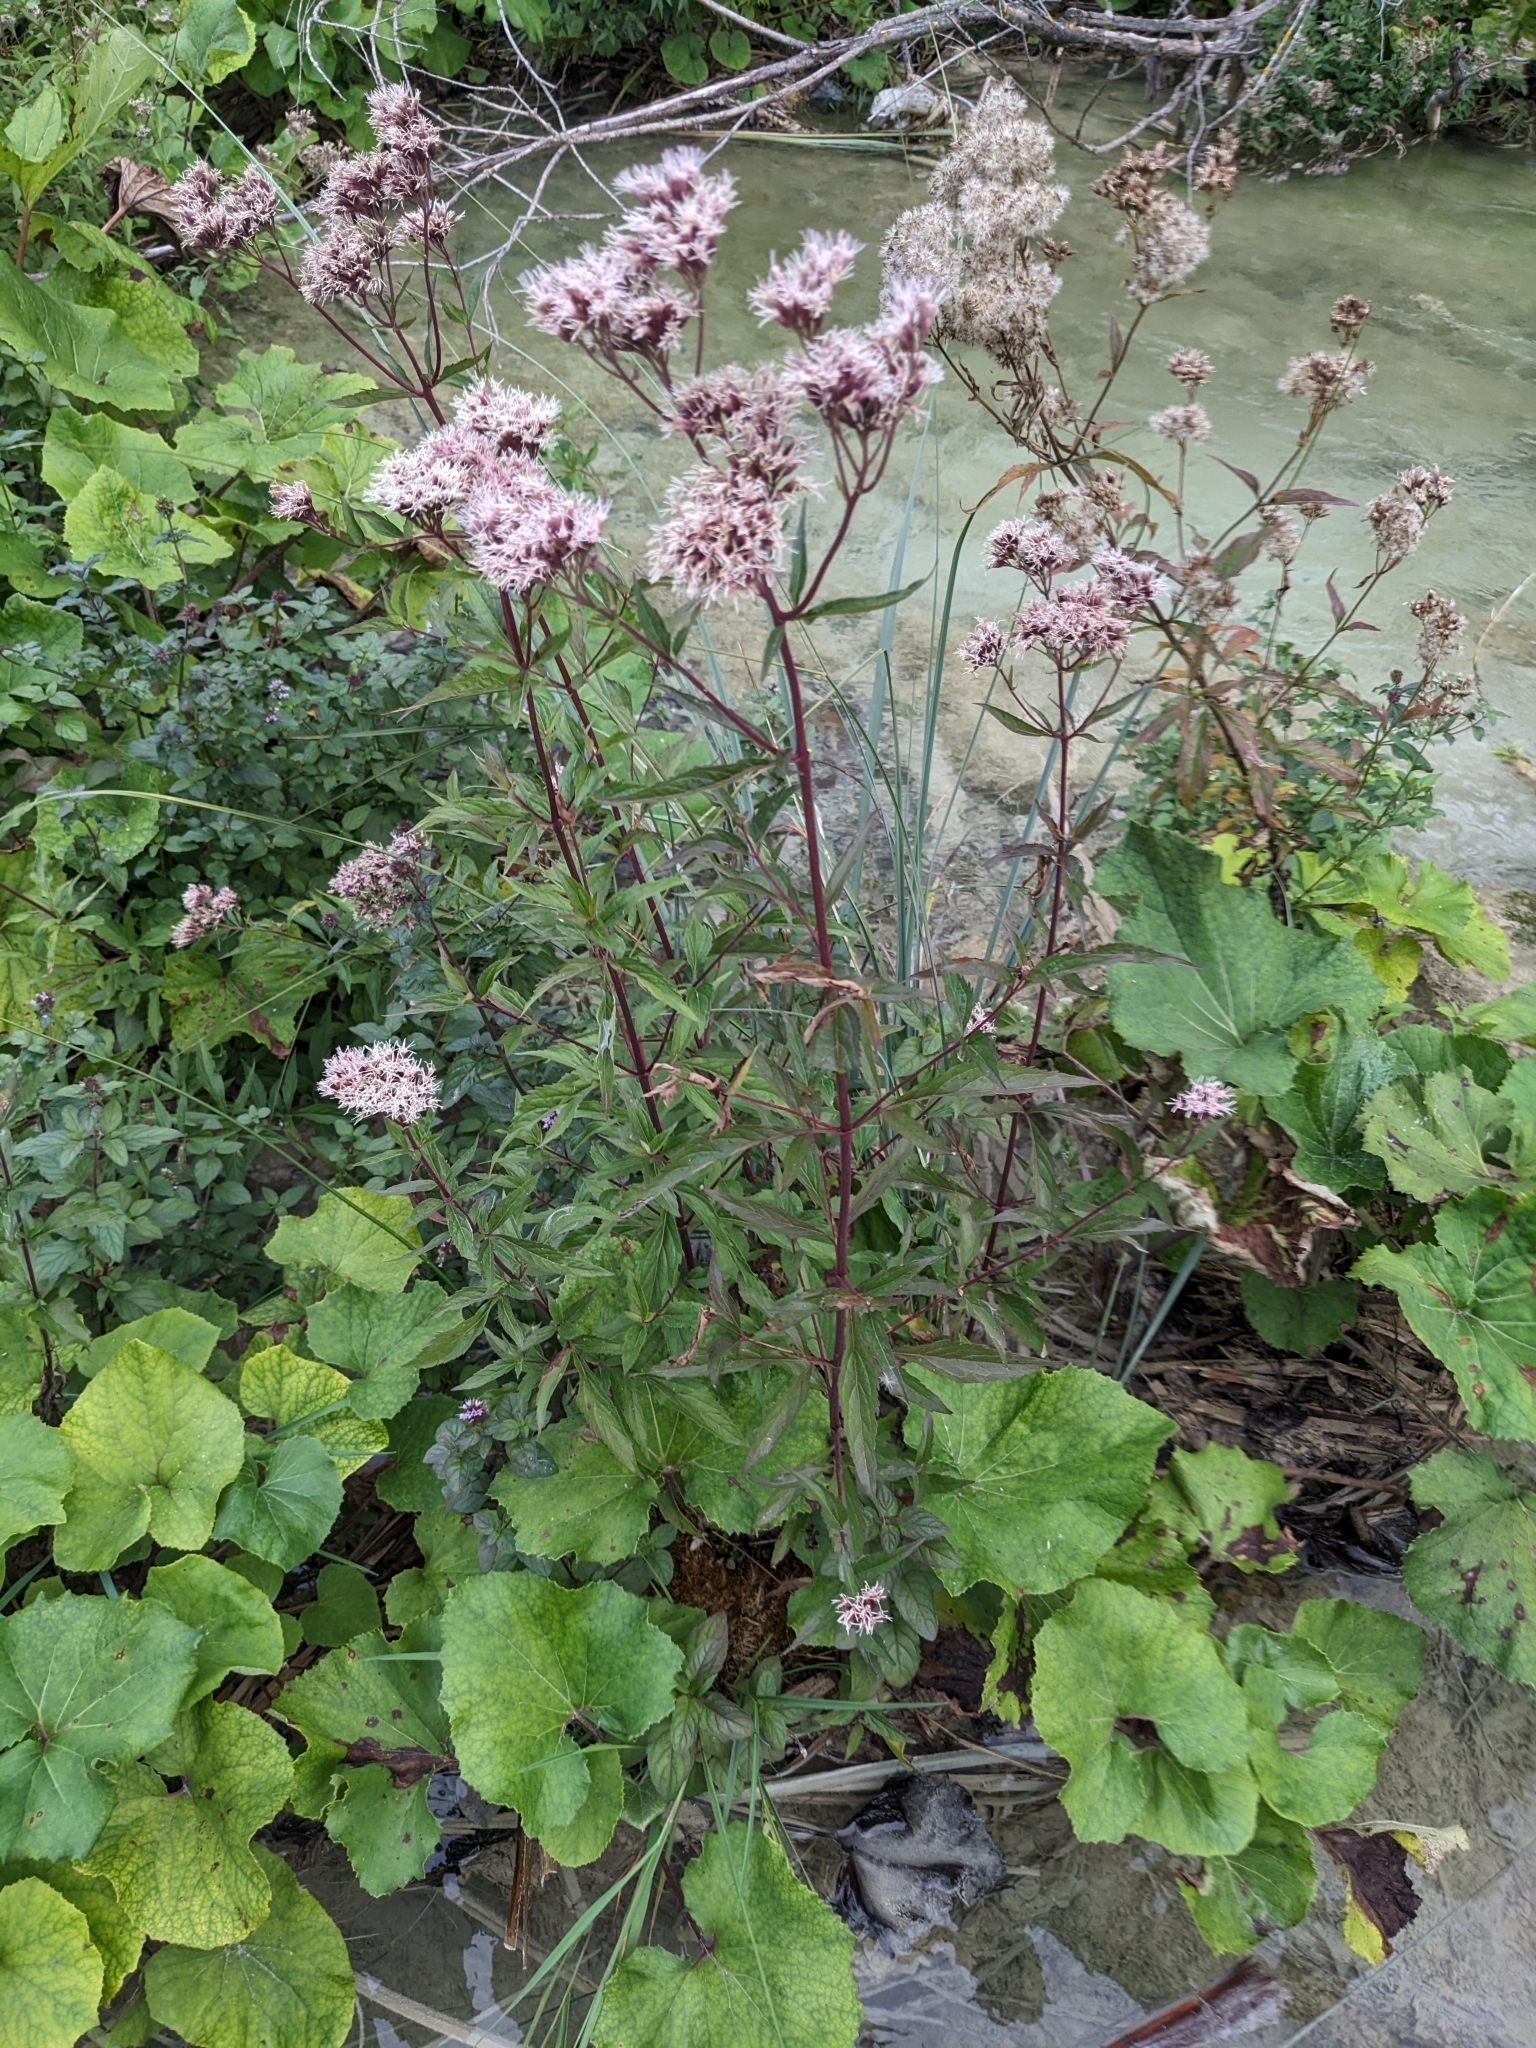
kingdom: Plantae
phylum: Tracheophyta
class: Magnoliopsida
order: Asterales
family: Asteraceae
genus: Eupatorium
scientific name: Eupatorium cannabinum
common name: Hemp-agrimony
